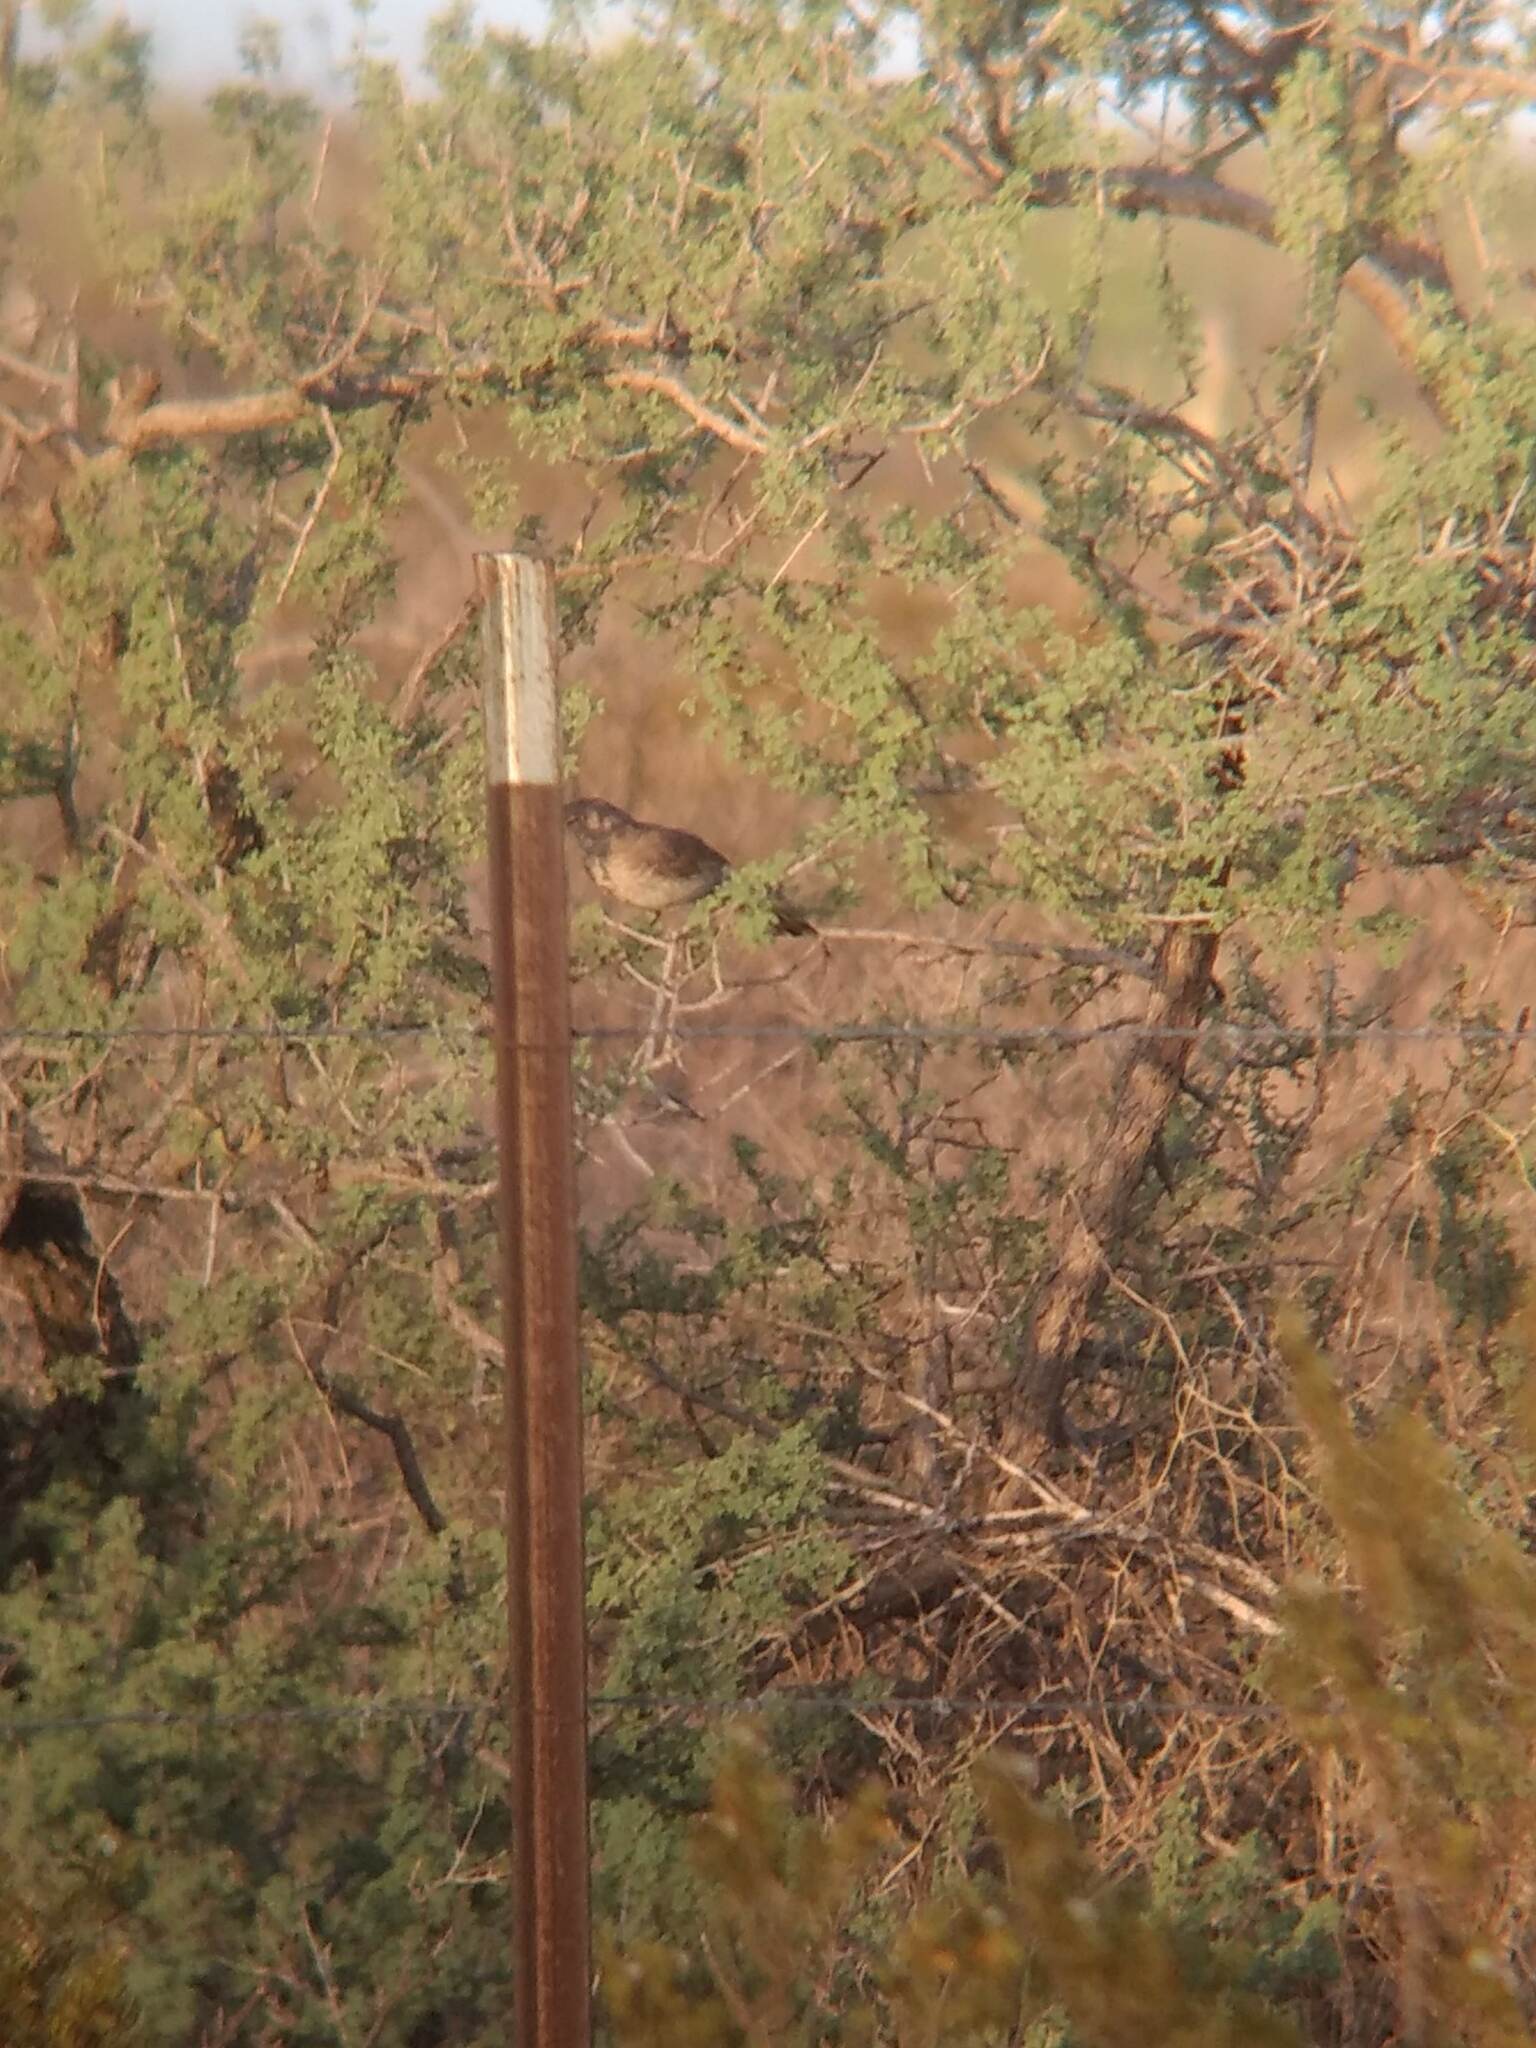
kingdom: Animalia
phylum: Chordata
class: Aves
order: Passeriformes
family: Mimidae
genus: Toxostoma
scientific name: Toxostoma curvirostre
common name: Curve-billed thrasher
